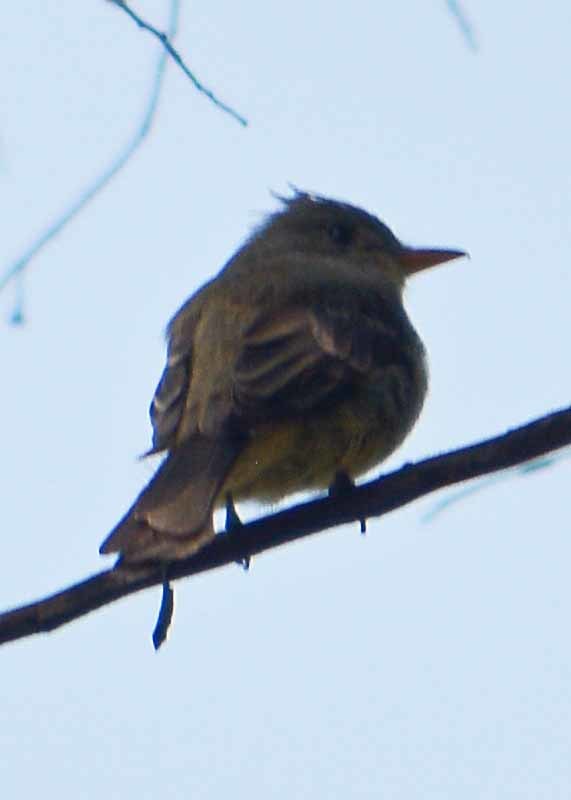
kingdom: Animalia
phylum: Chordata
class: Aves
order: Passeriformes
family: Tyrannidae
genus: Contopus
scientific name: Contopus pertinax
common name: Greater pewee
